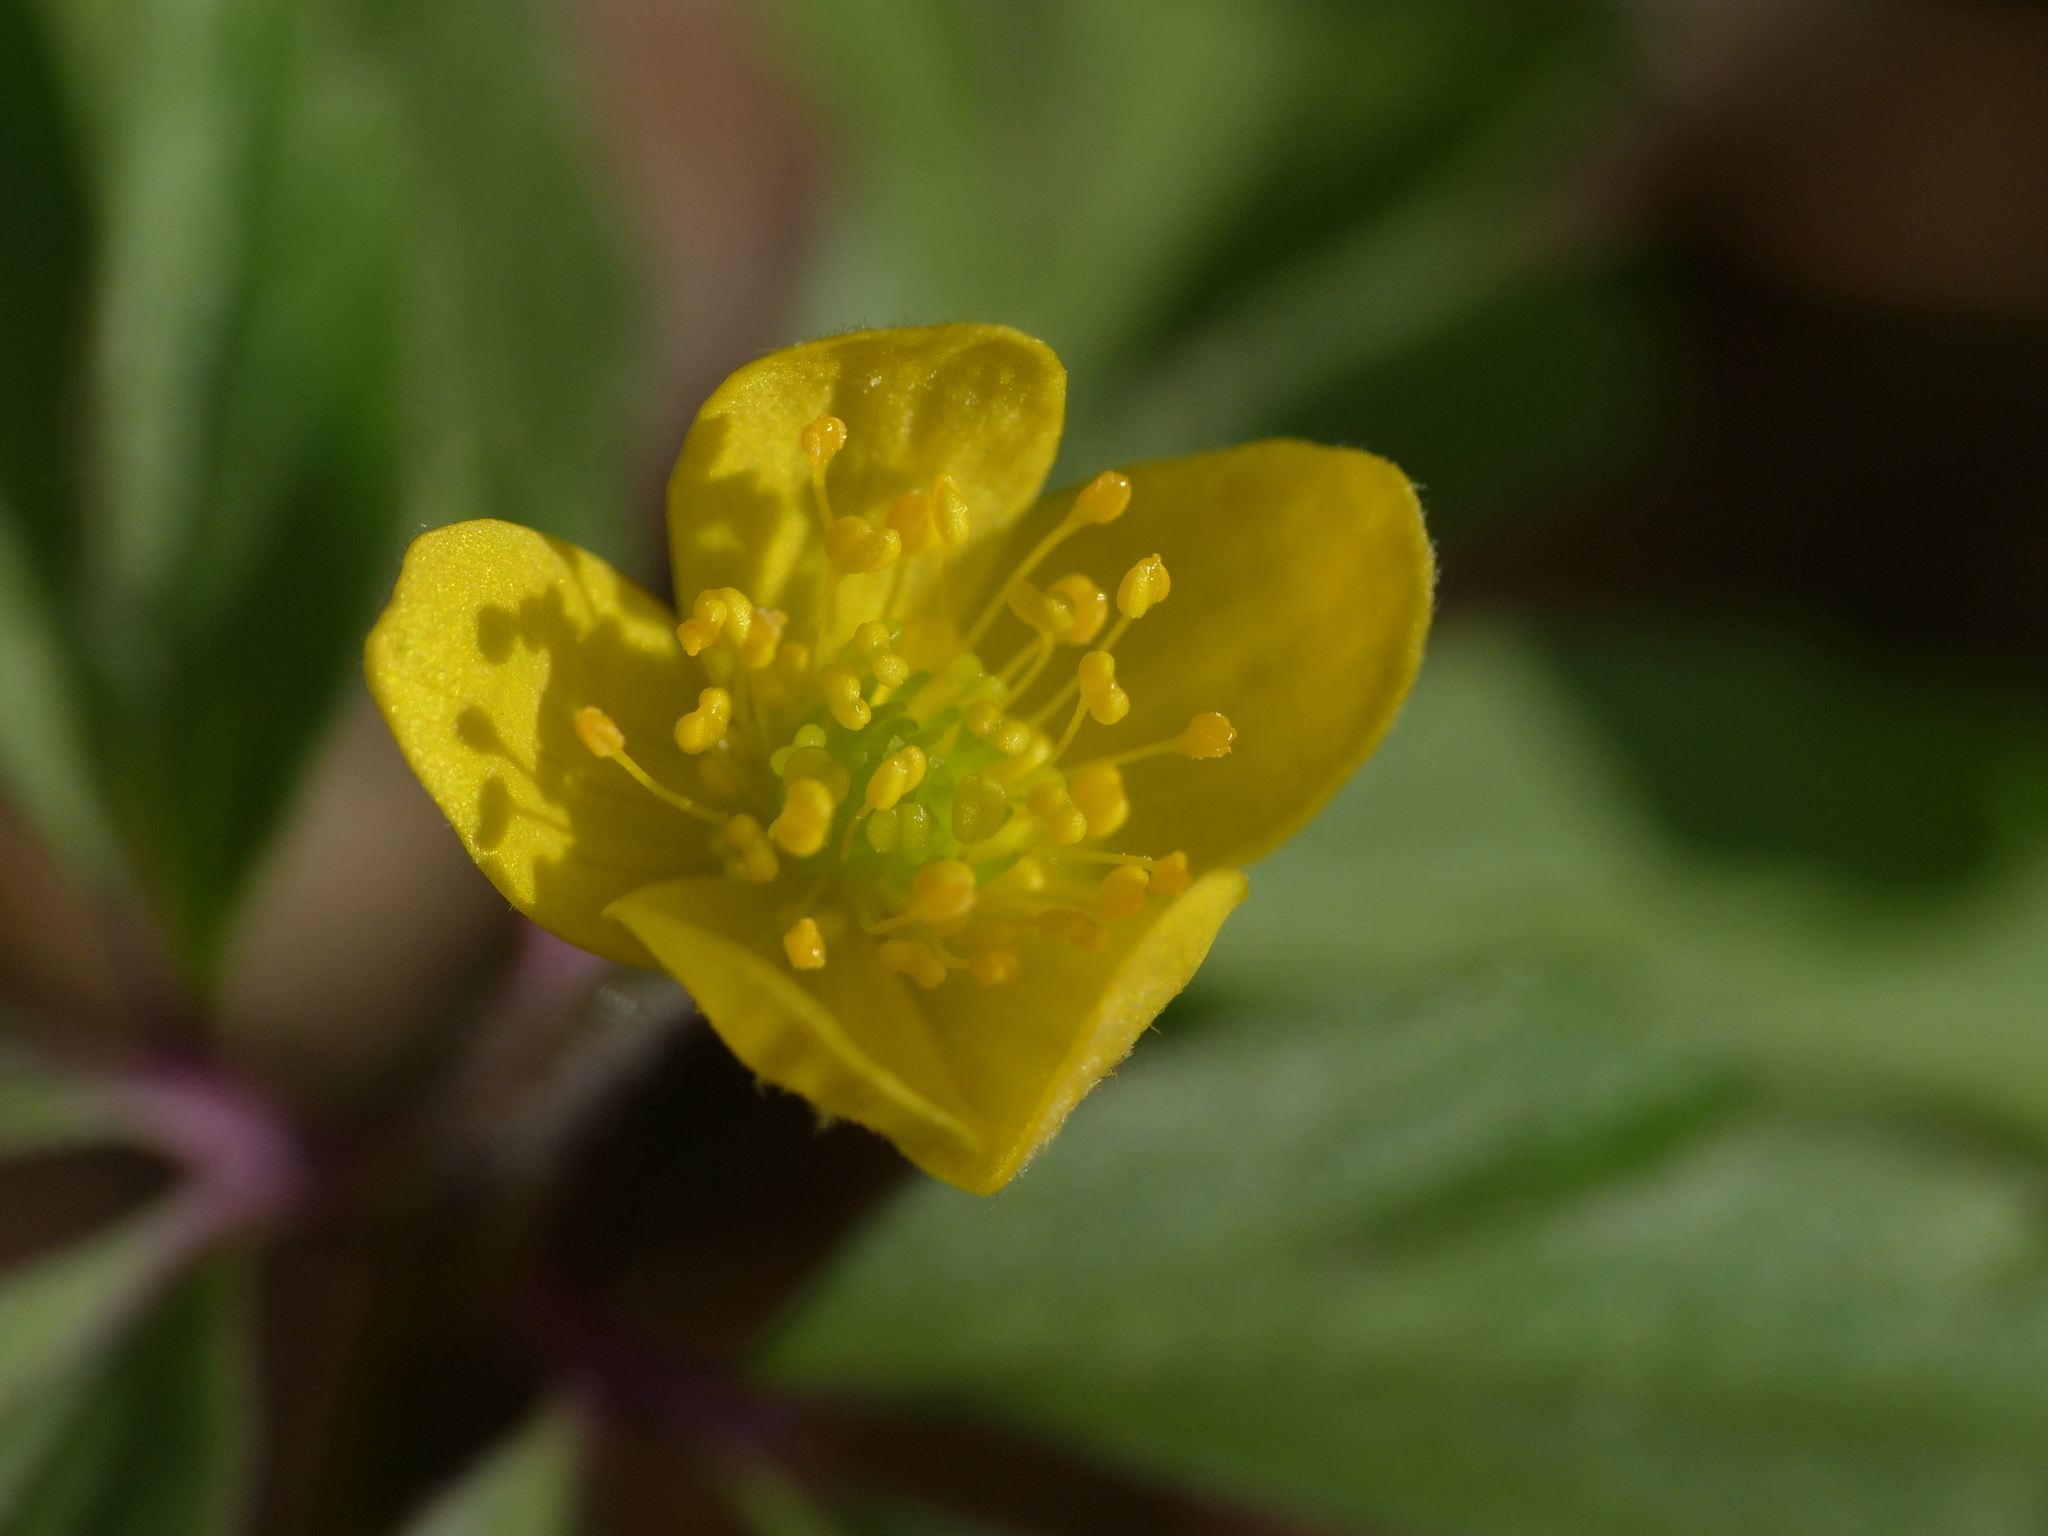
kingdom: Plantae
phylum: Tracheophyta
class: Magnoliopsida
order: Ranunculales
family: Ranunculaceae
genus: Anemone
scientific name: Anemone ranunculoides
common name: Yellow anemone
